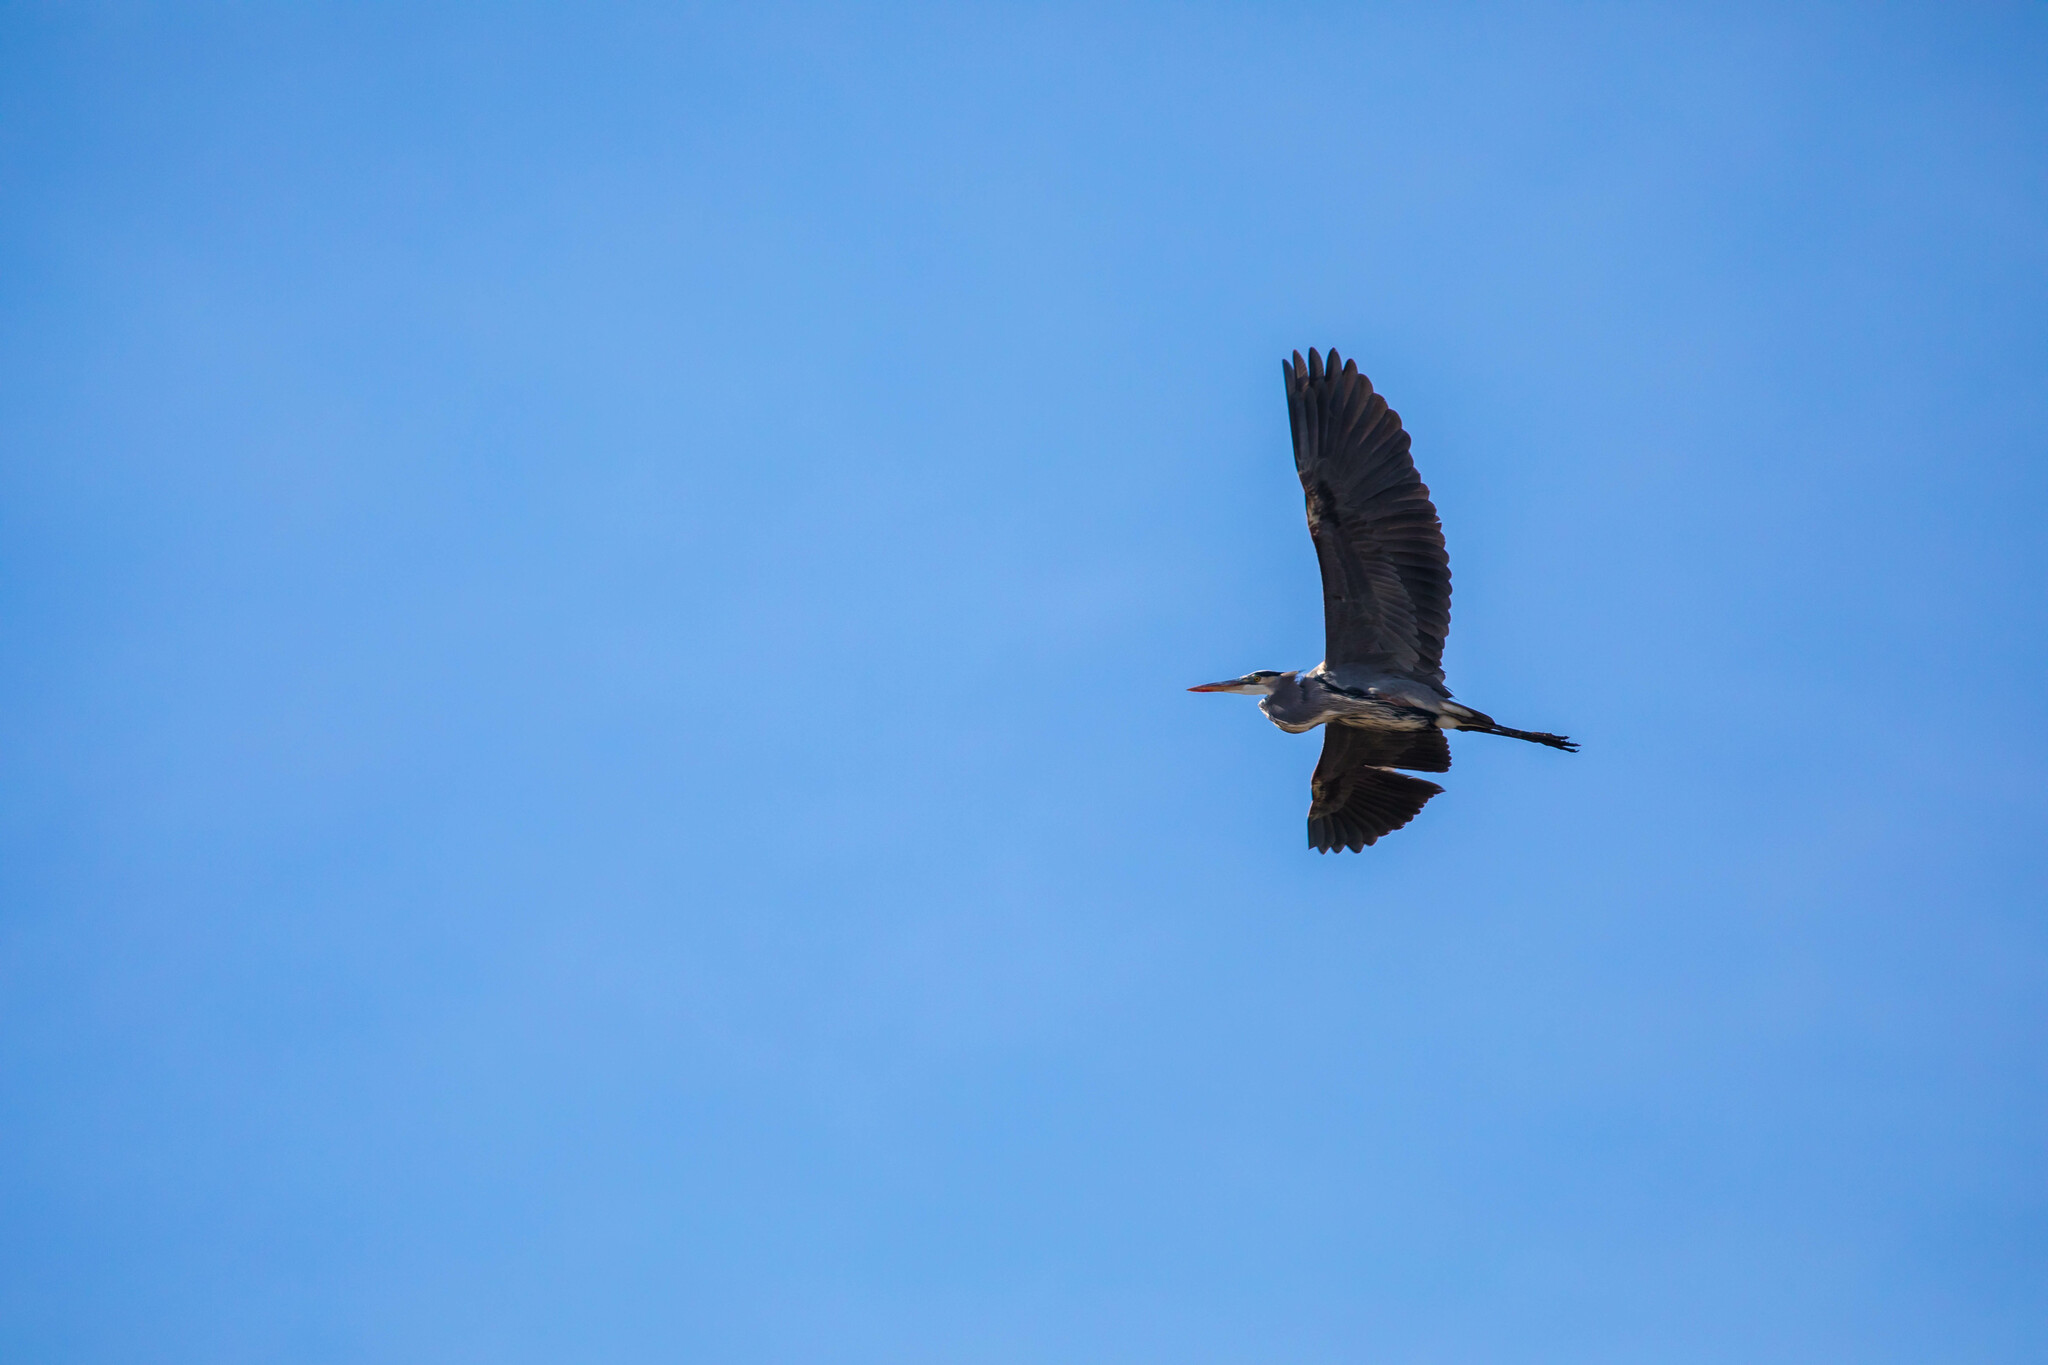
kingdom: Animalia
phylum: Chordata
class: Aves
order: Pelecaniformes
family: Ardeidae
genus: Ardea
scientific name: Ardea herodias
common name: Great blue heron
